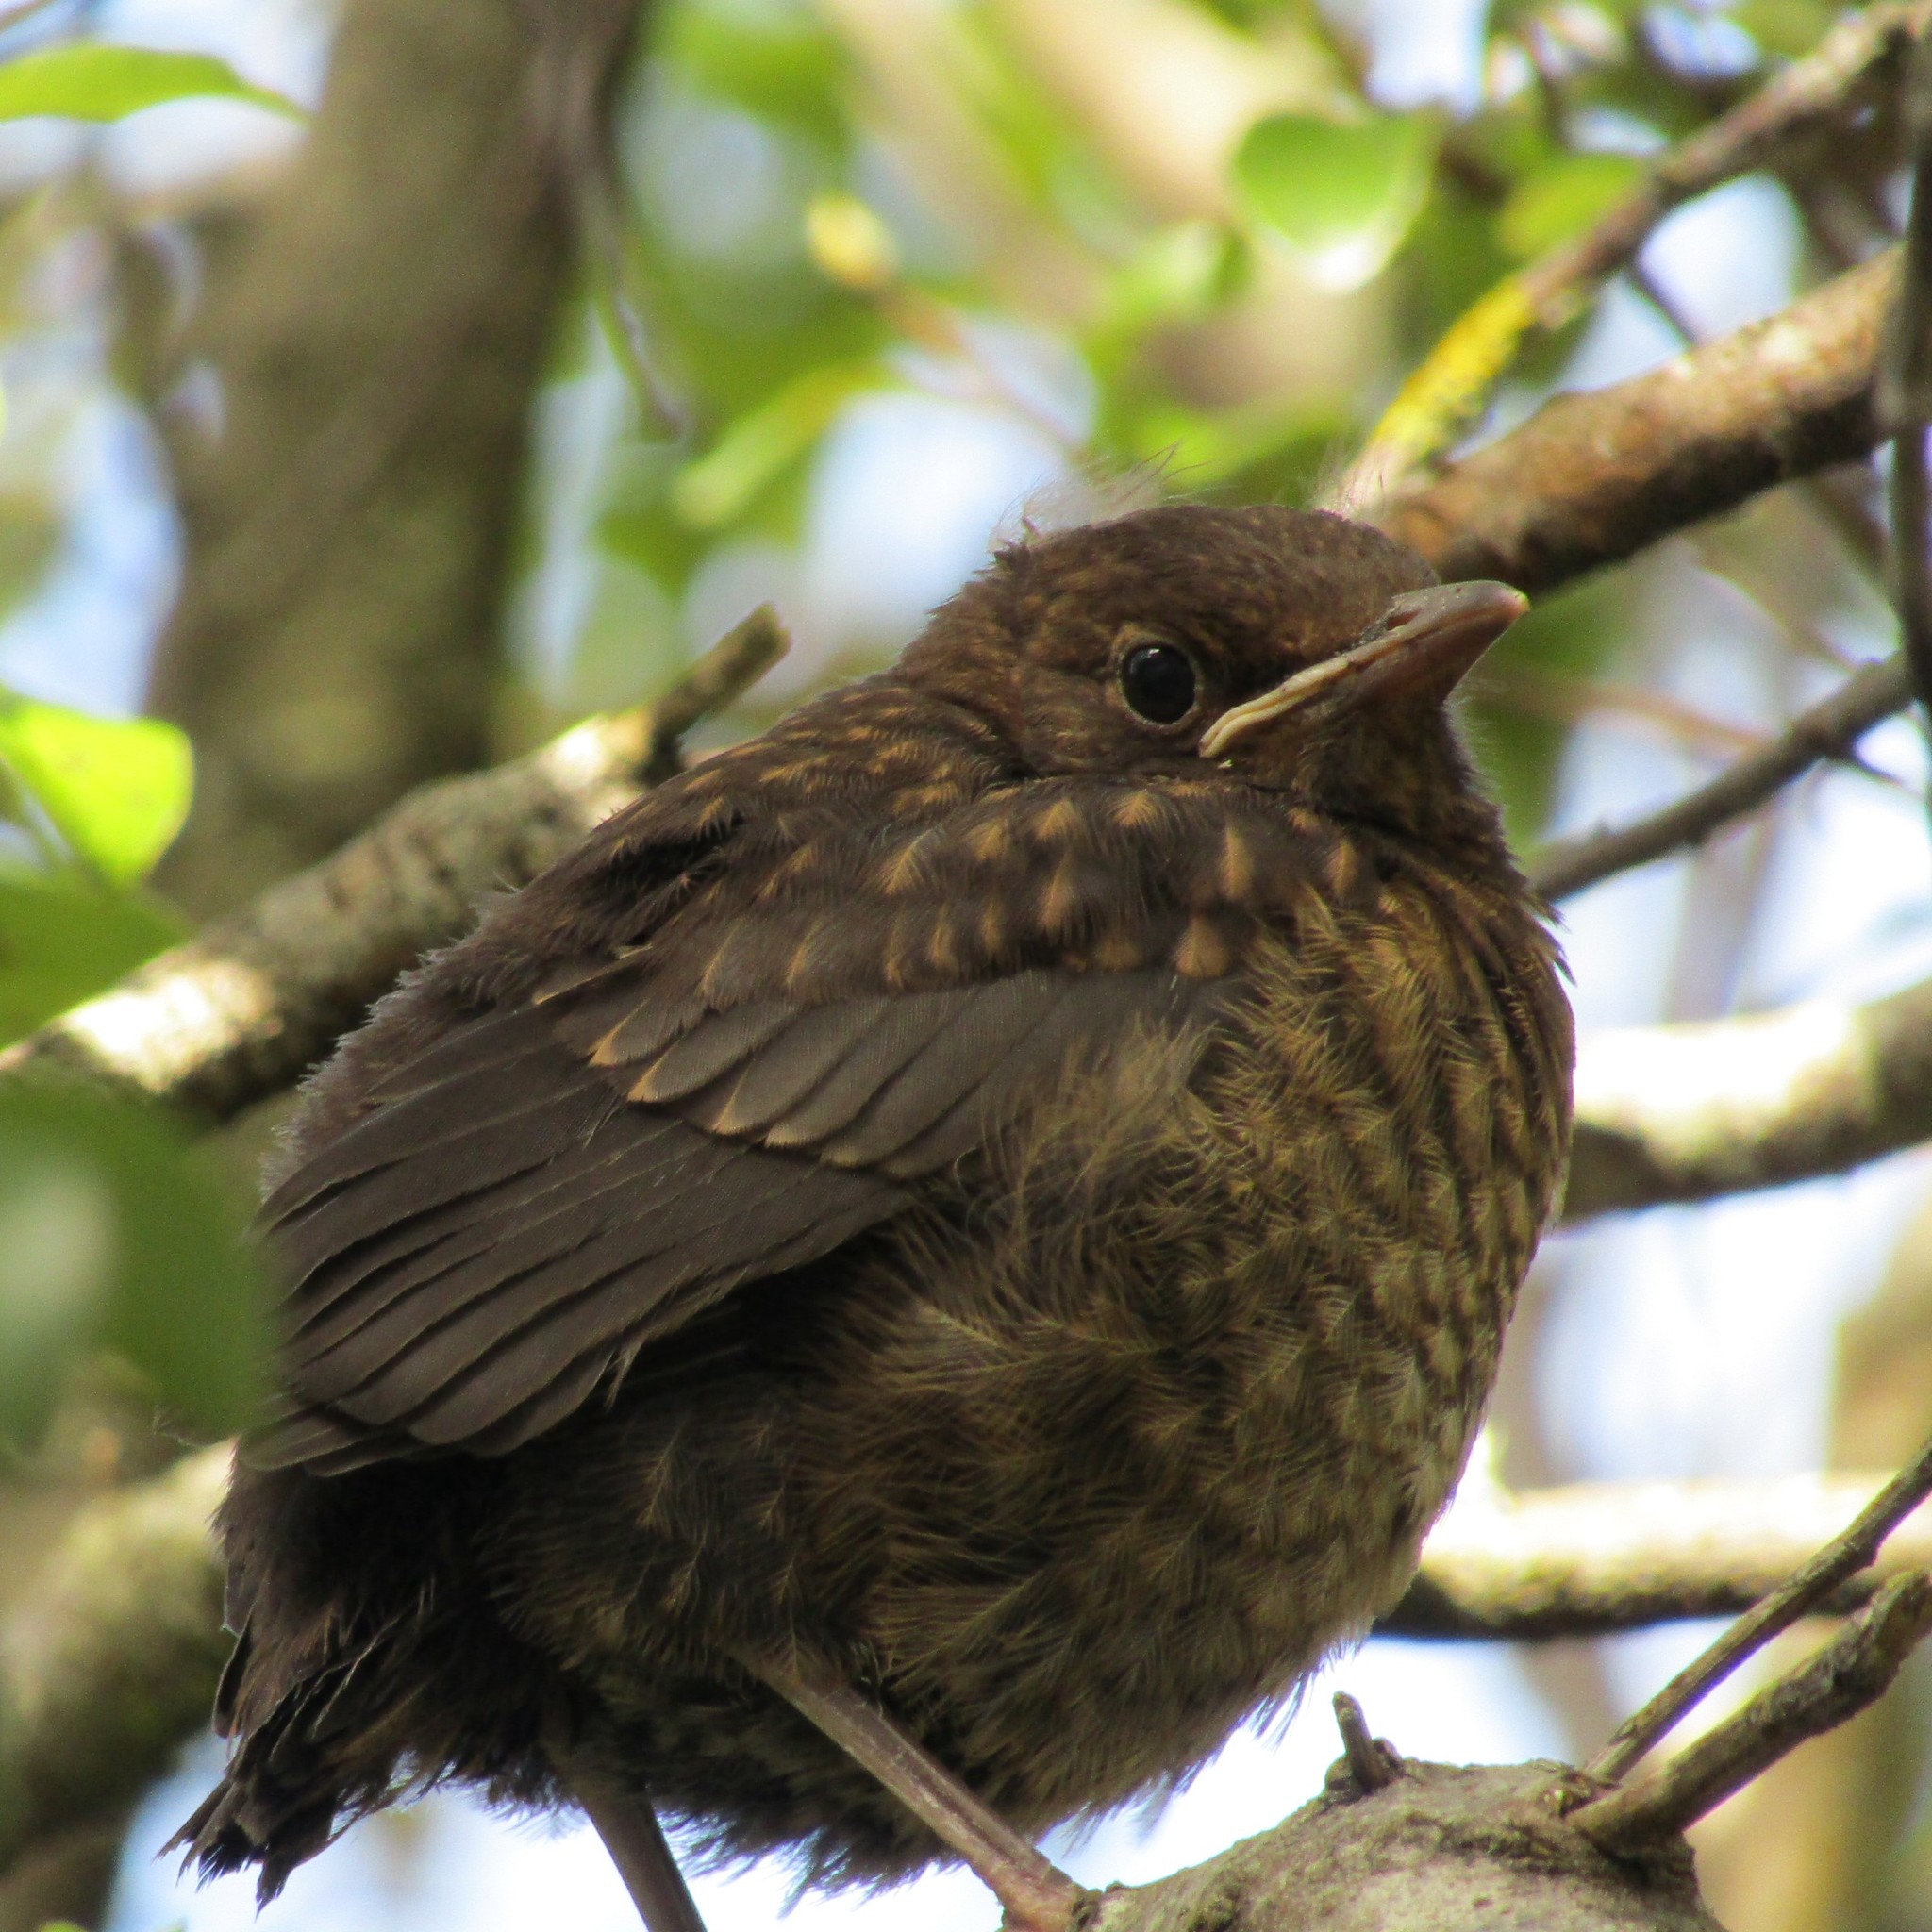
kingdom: Animalia
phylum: Chordata
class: Aves
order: Passeriformes
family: Turdidae
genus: Turdus
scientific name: Turdus merula
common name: Common blackbird
